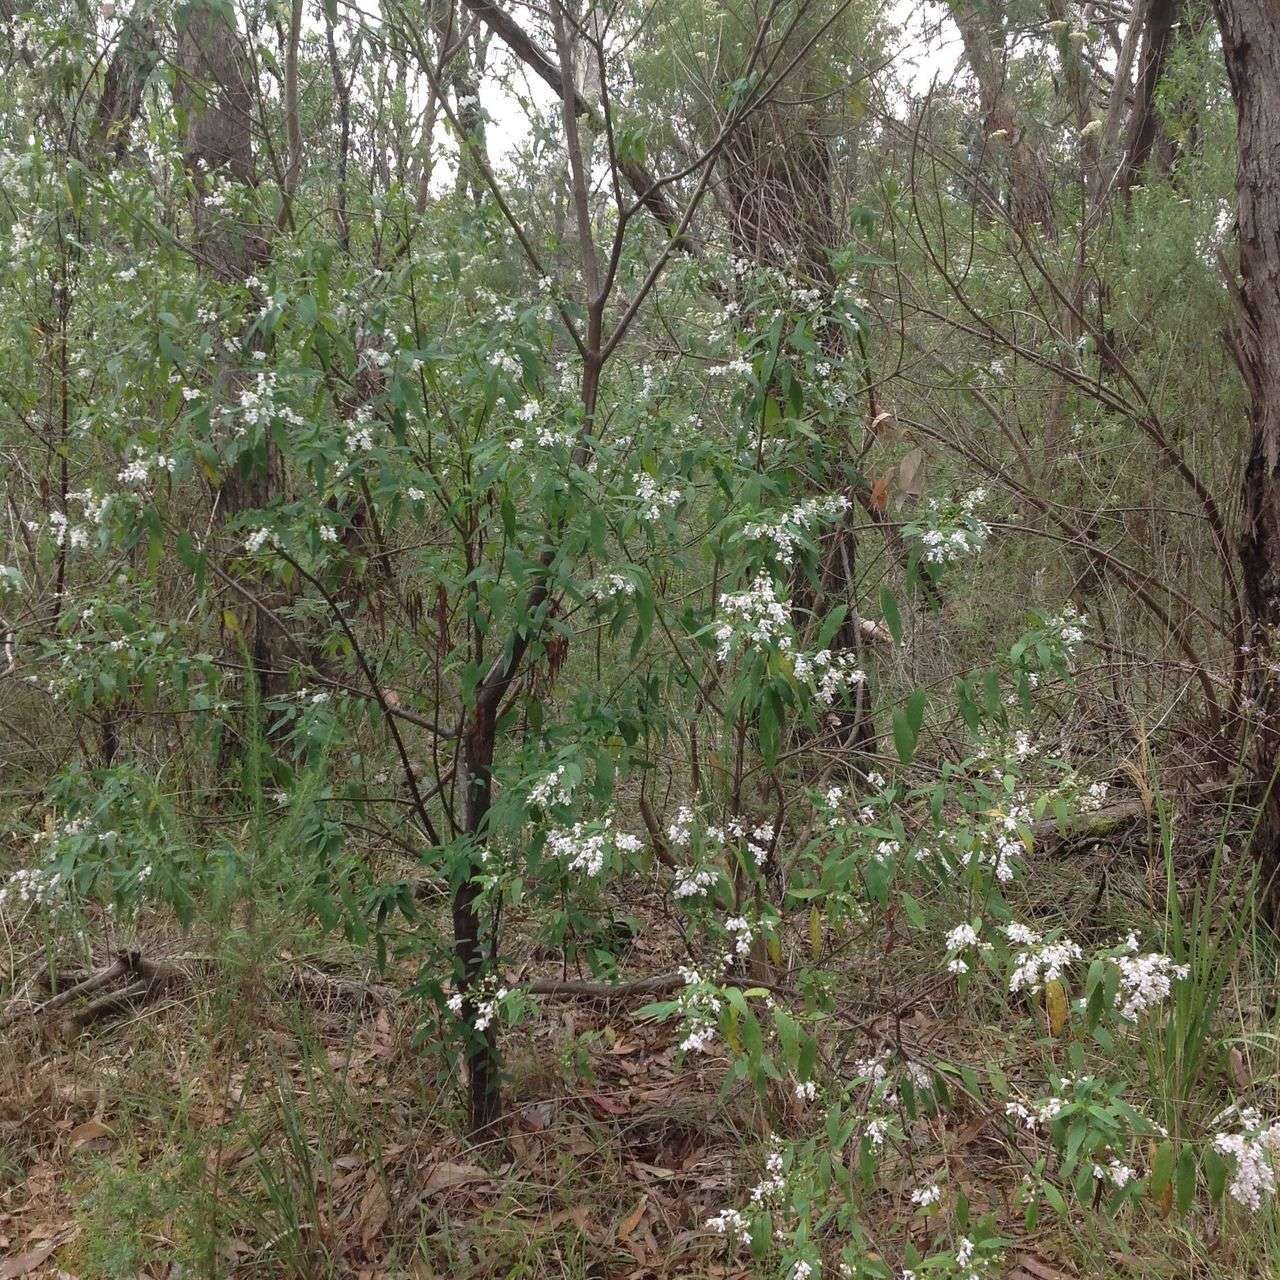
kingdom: Plantae
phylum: Tracheophyta
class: Magnoliopsida
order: Lamiales
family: Lamiaceae
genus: Prostanthera
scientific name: Prostanthera lasianthos
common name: Mountain-lilac
